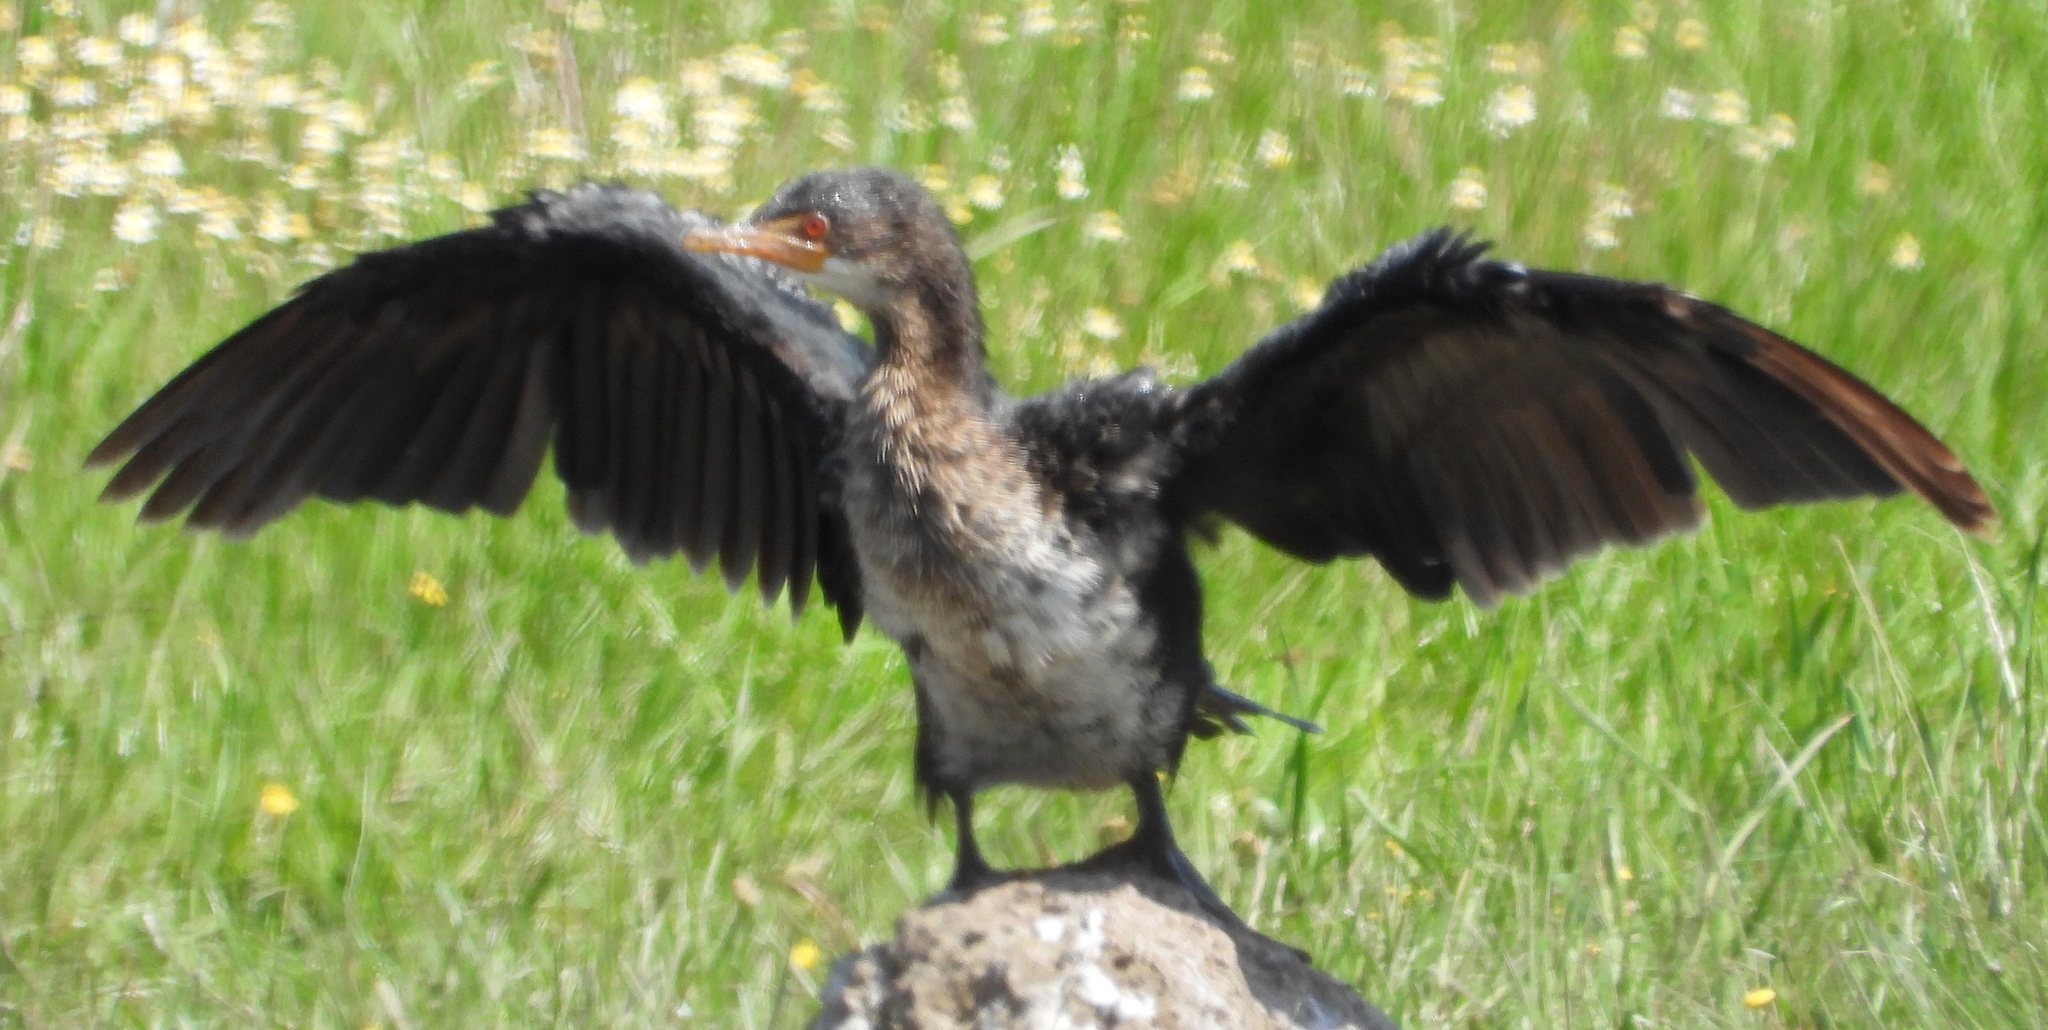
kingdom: Animalia
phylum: Chordata
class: Aves
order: Suliformes
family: Phalacrocoracidae
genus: Microcarbo
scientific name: Microcarbo africanus
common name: Long-tailed cormorant
